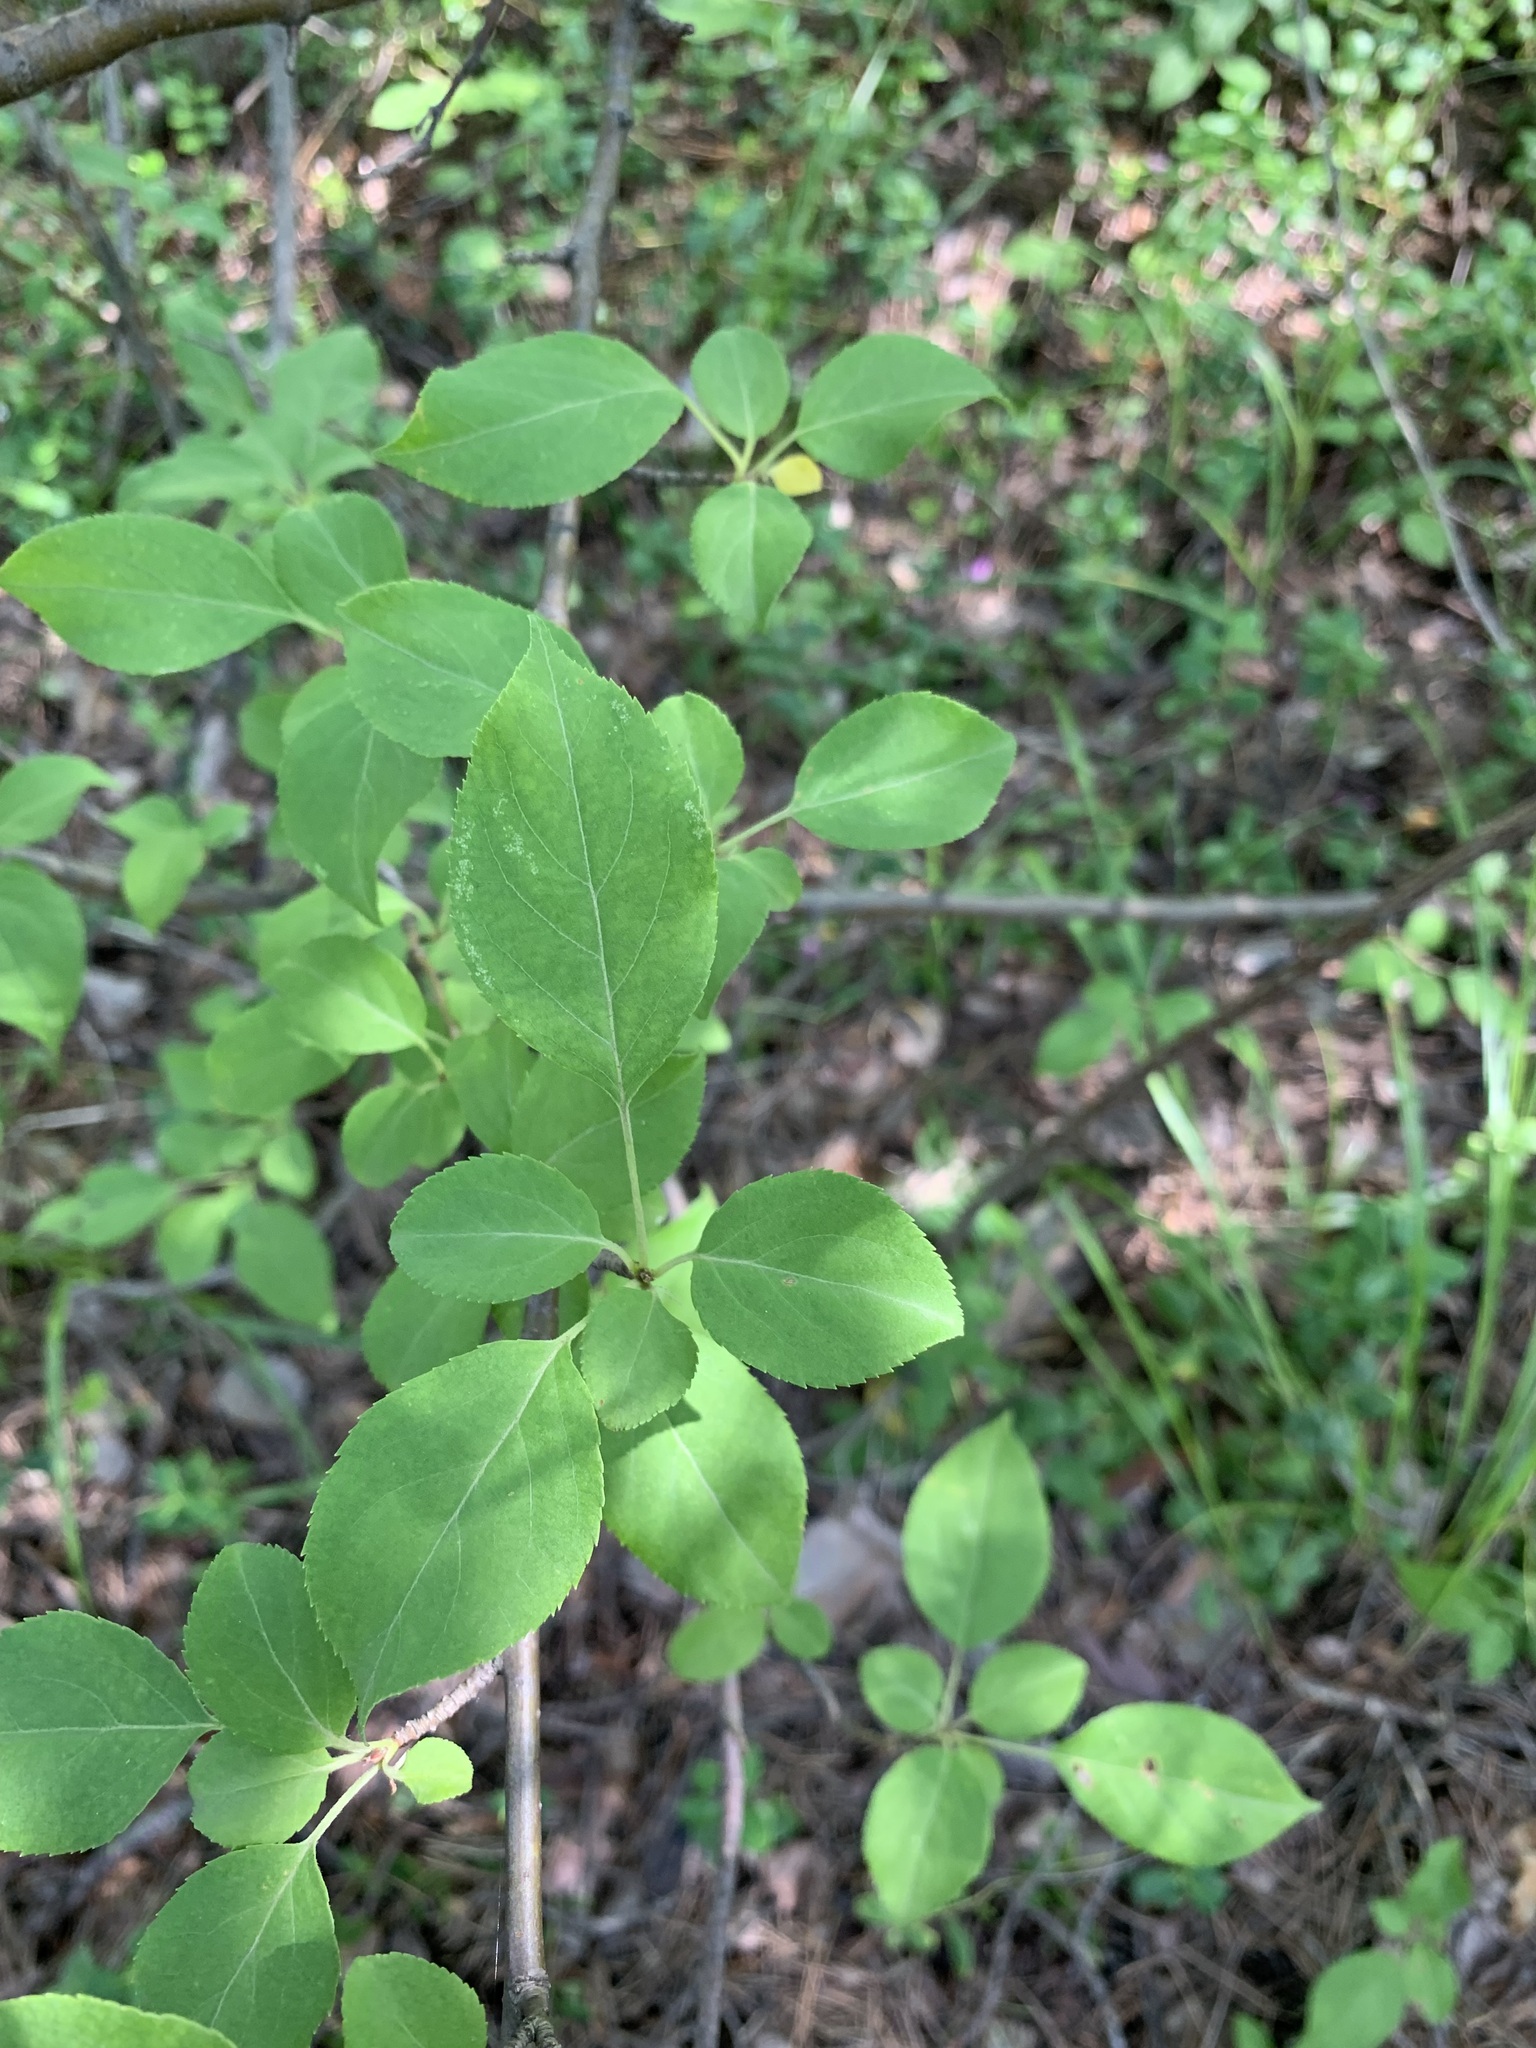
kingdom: Plantae
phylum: Tracheophyta
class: Magnoliopsida
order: Rosales
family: Rosaceae
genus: Malus
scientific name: Malus baccata
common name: Siberian crab
